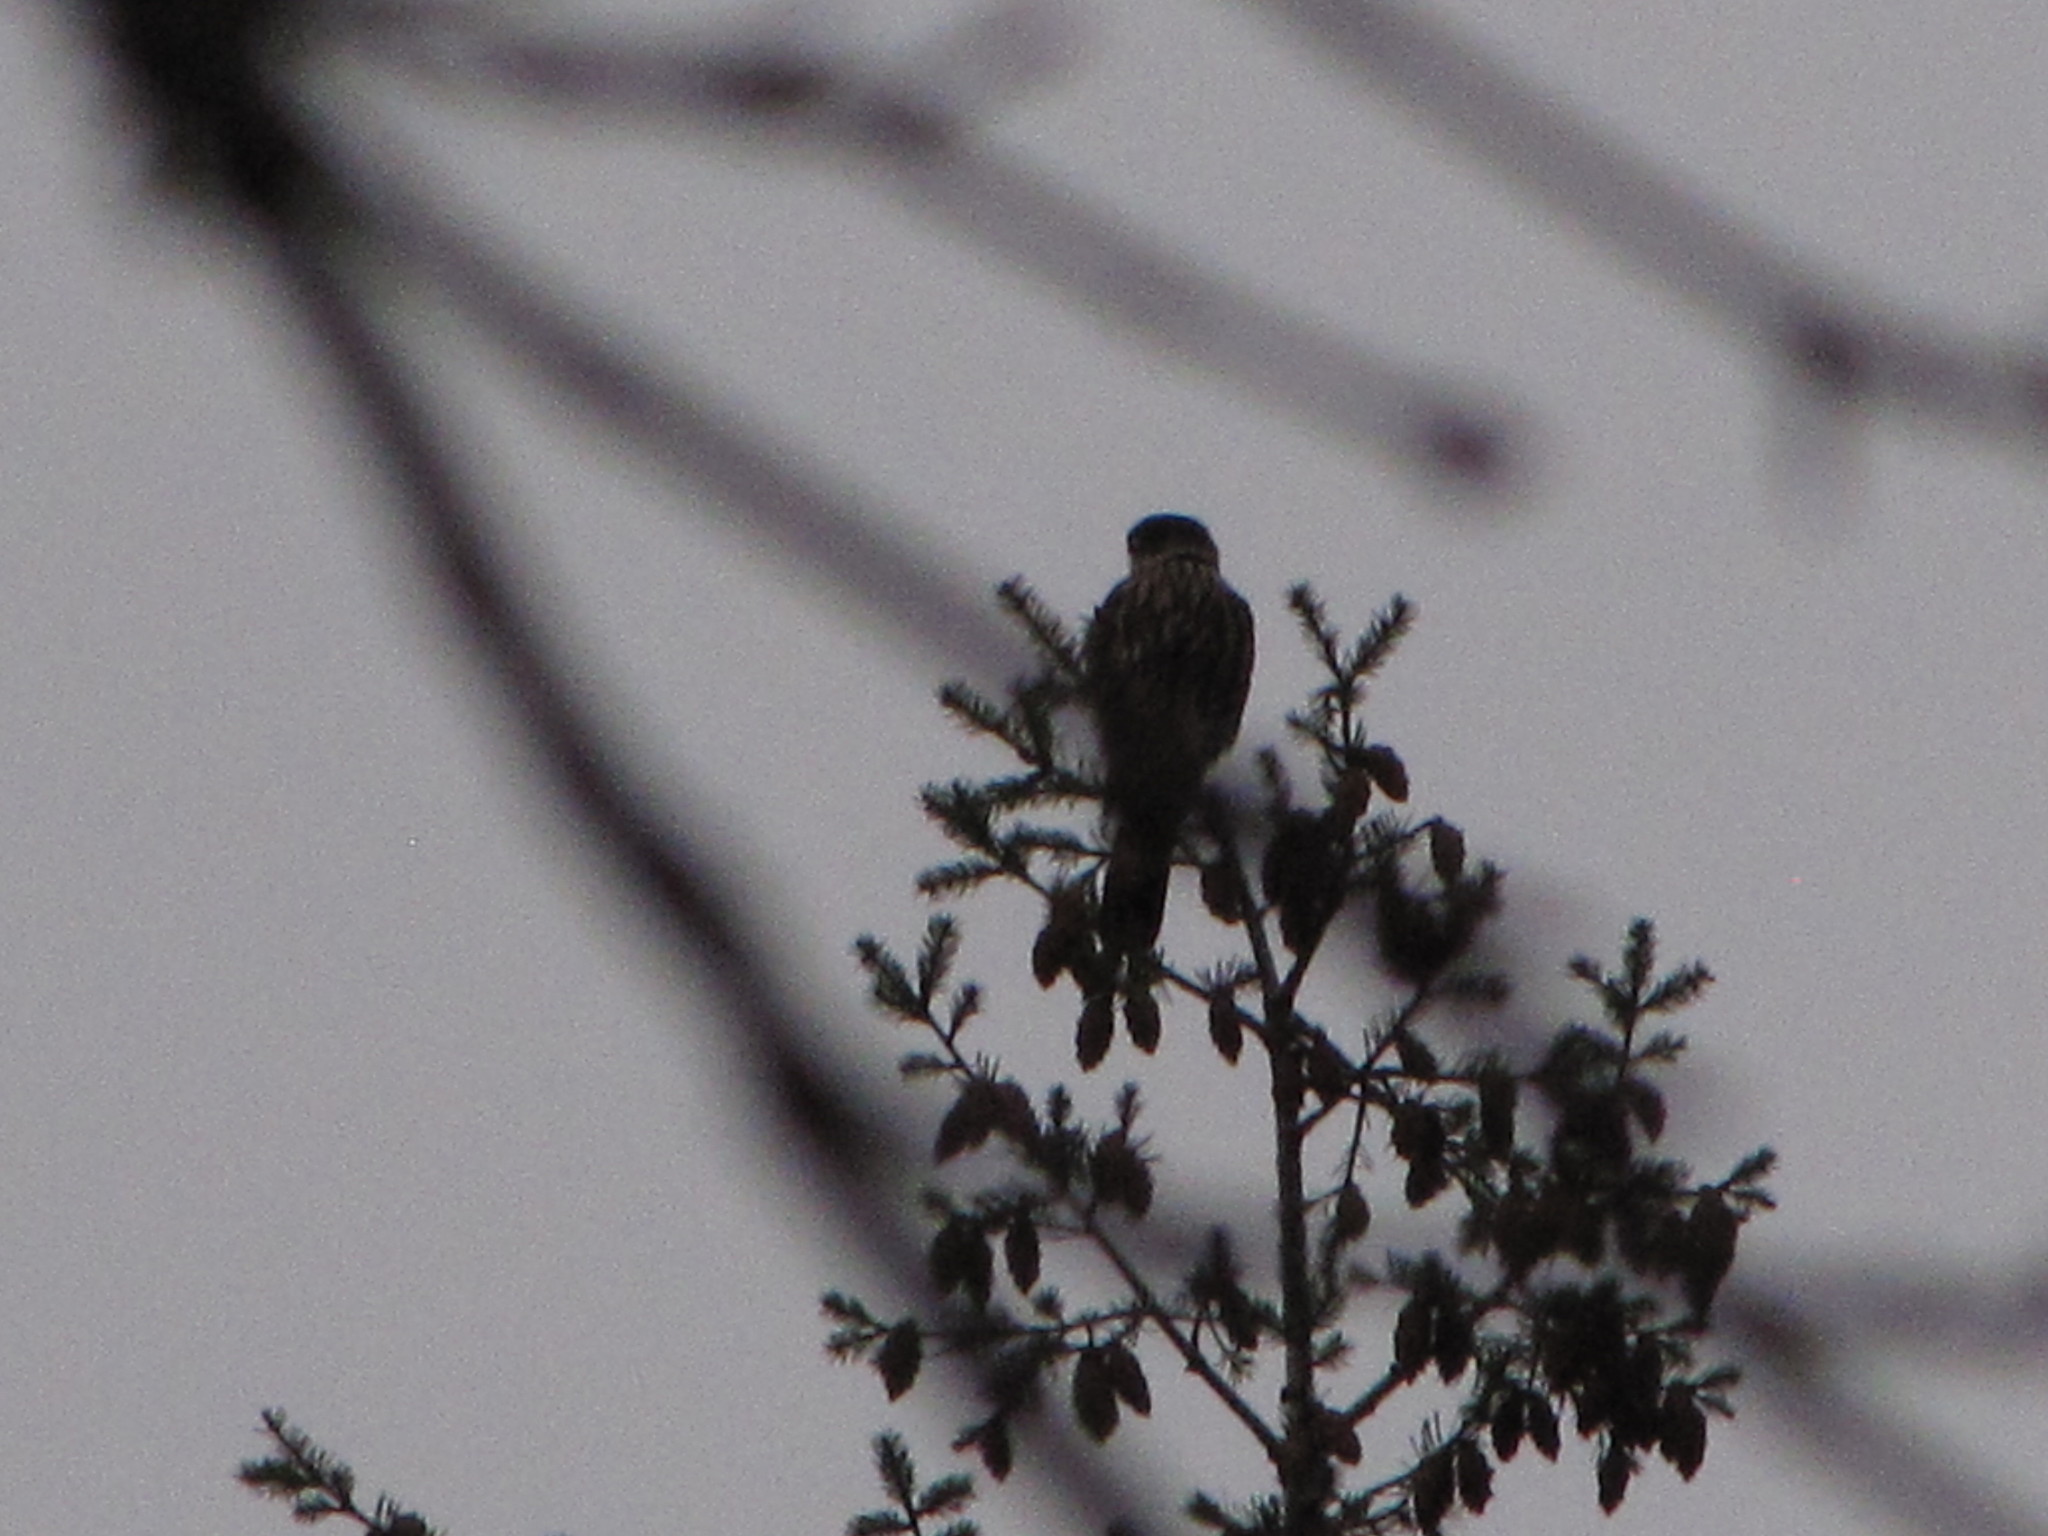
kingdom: Animalia
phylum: Chordata
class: Aves
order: Falconiformes
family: Falconidae
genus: Falco
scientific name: Falco columbarius
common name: Merlin
